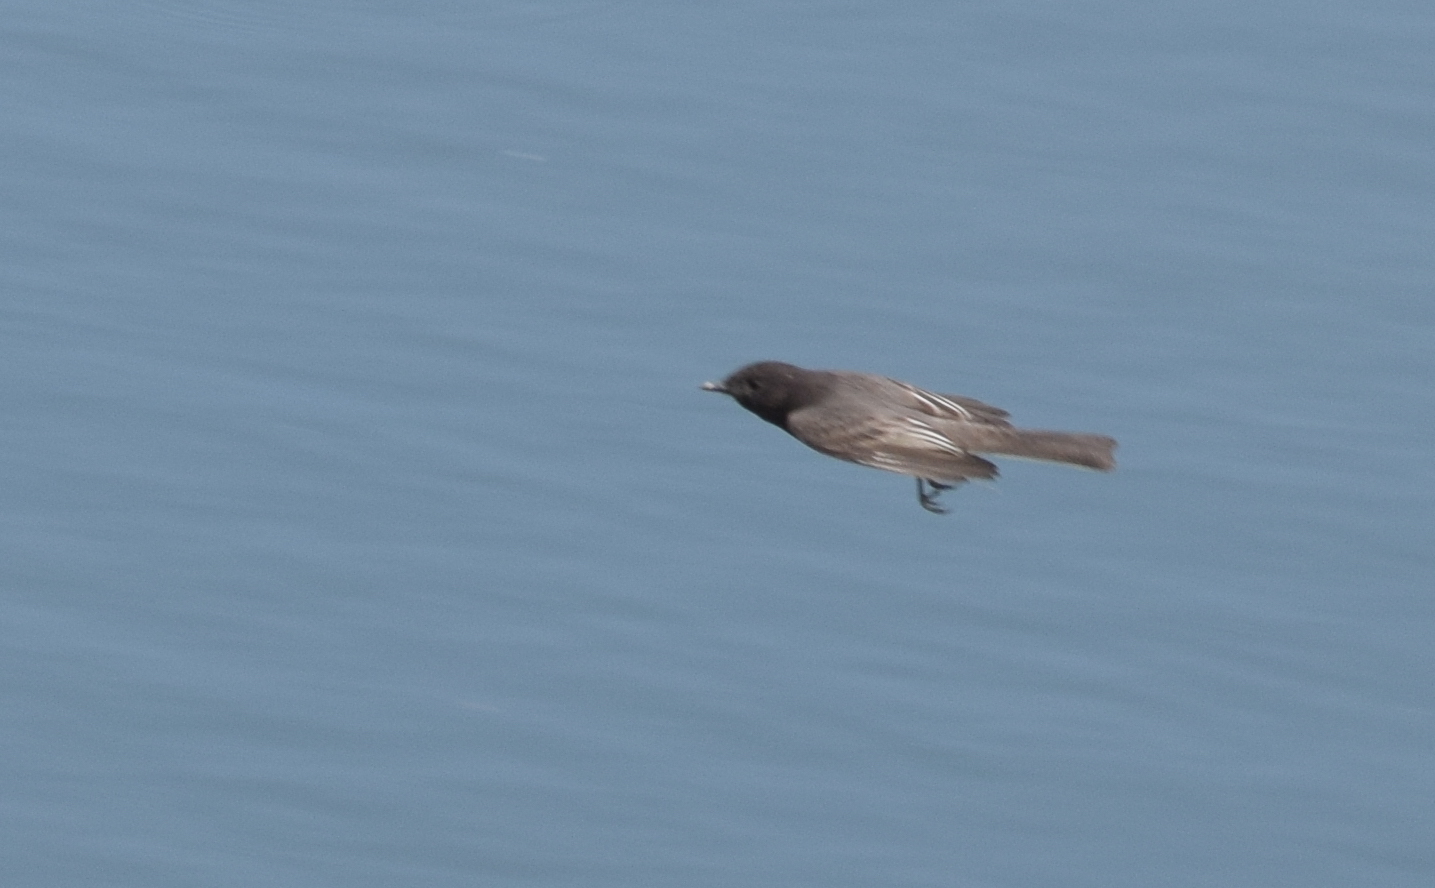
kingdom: Animalia
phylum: Chordata
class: Aves
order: Passeriformes
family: Tyrannidae
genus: Sayornis
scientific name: Sayornis nigricans
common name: Black phoebe
